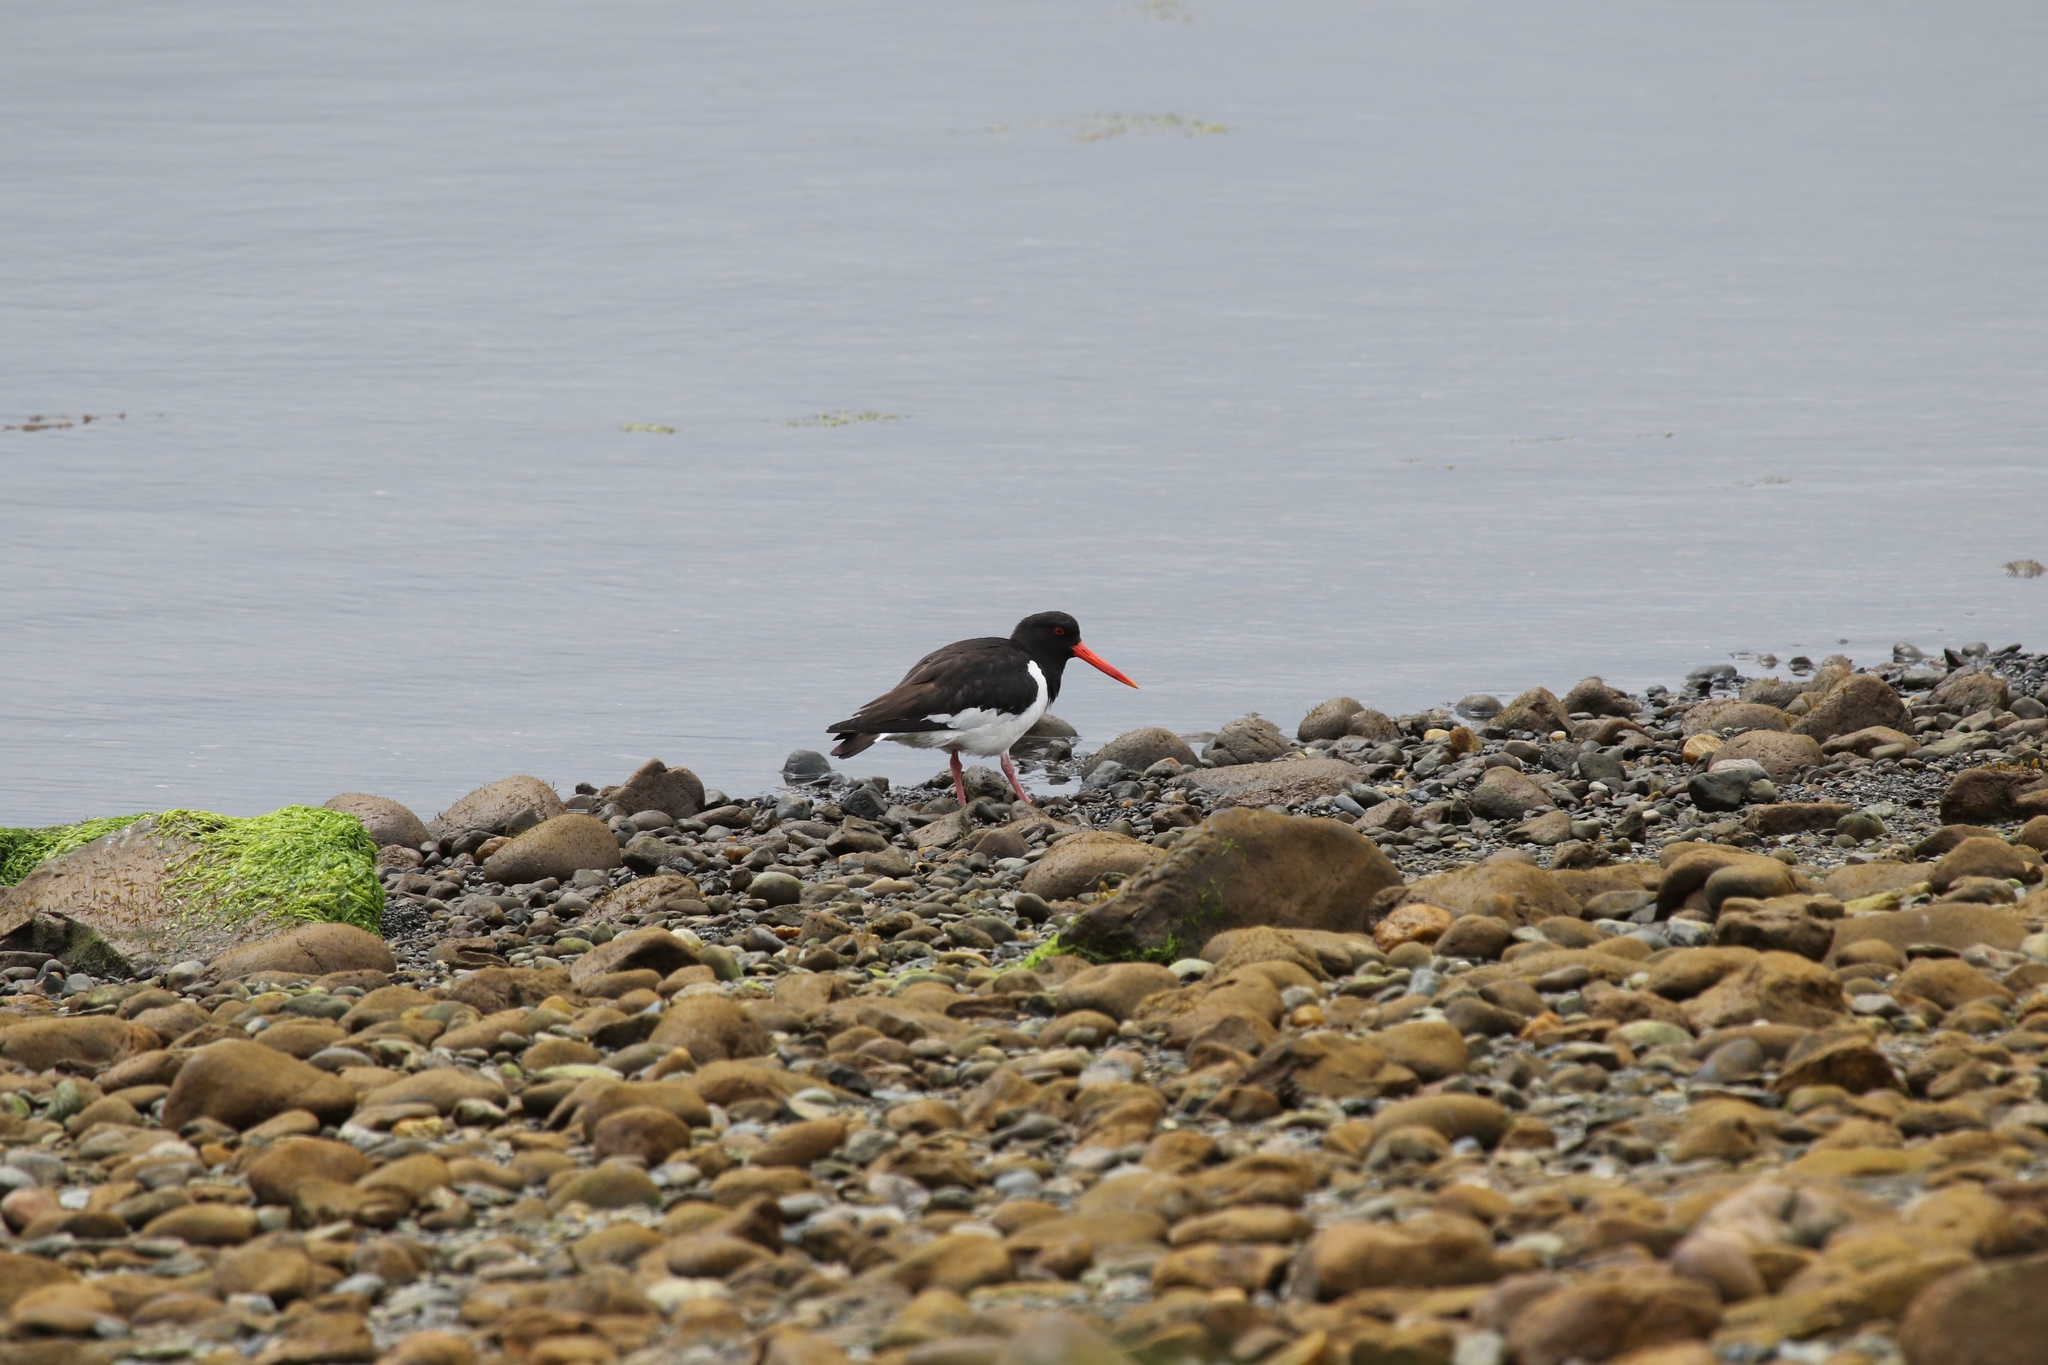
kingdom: Animalia
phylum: Chordata
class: Aves
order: Charadriiformes
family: Haematopodidae
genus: Haematopus
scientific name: Haematopus ostralegus
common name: Eurasian oystercatcher
